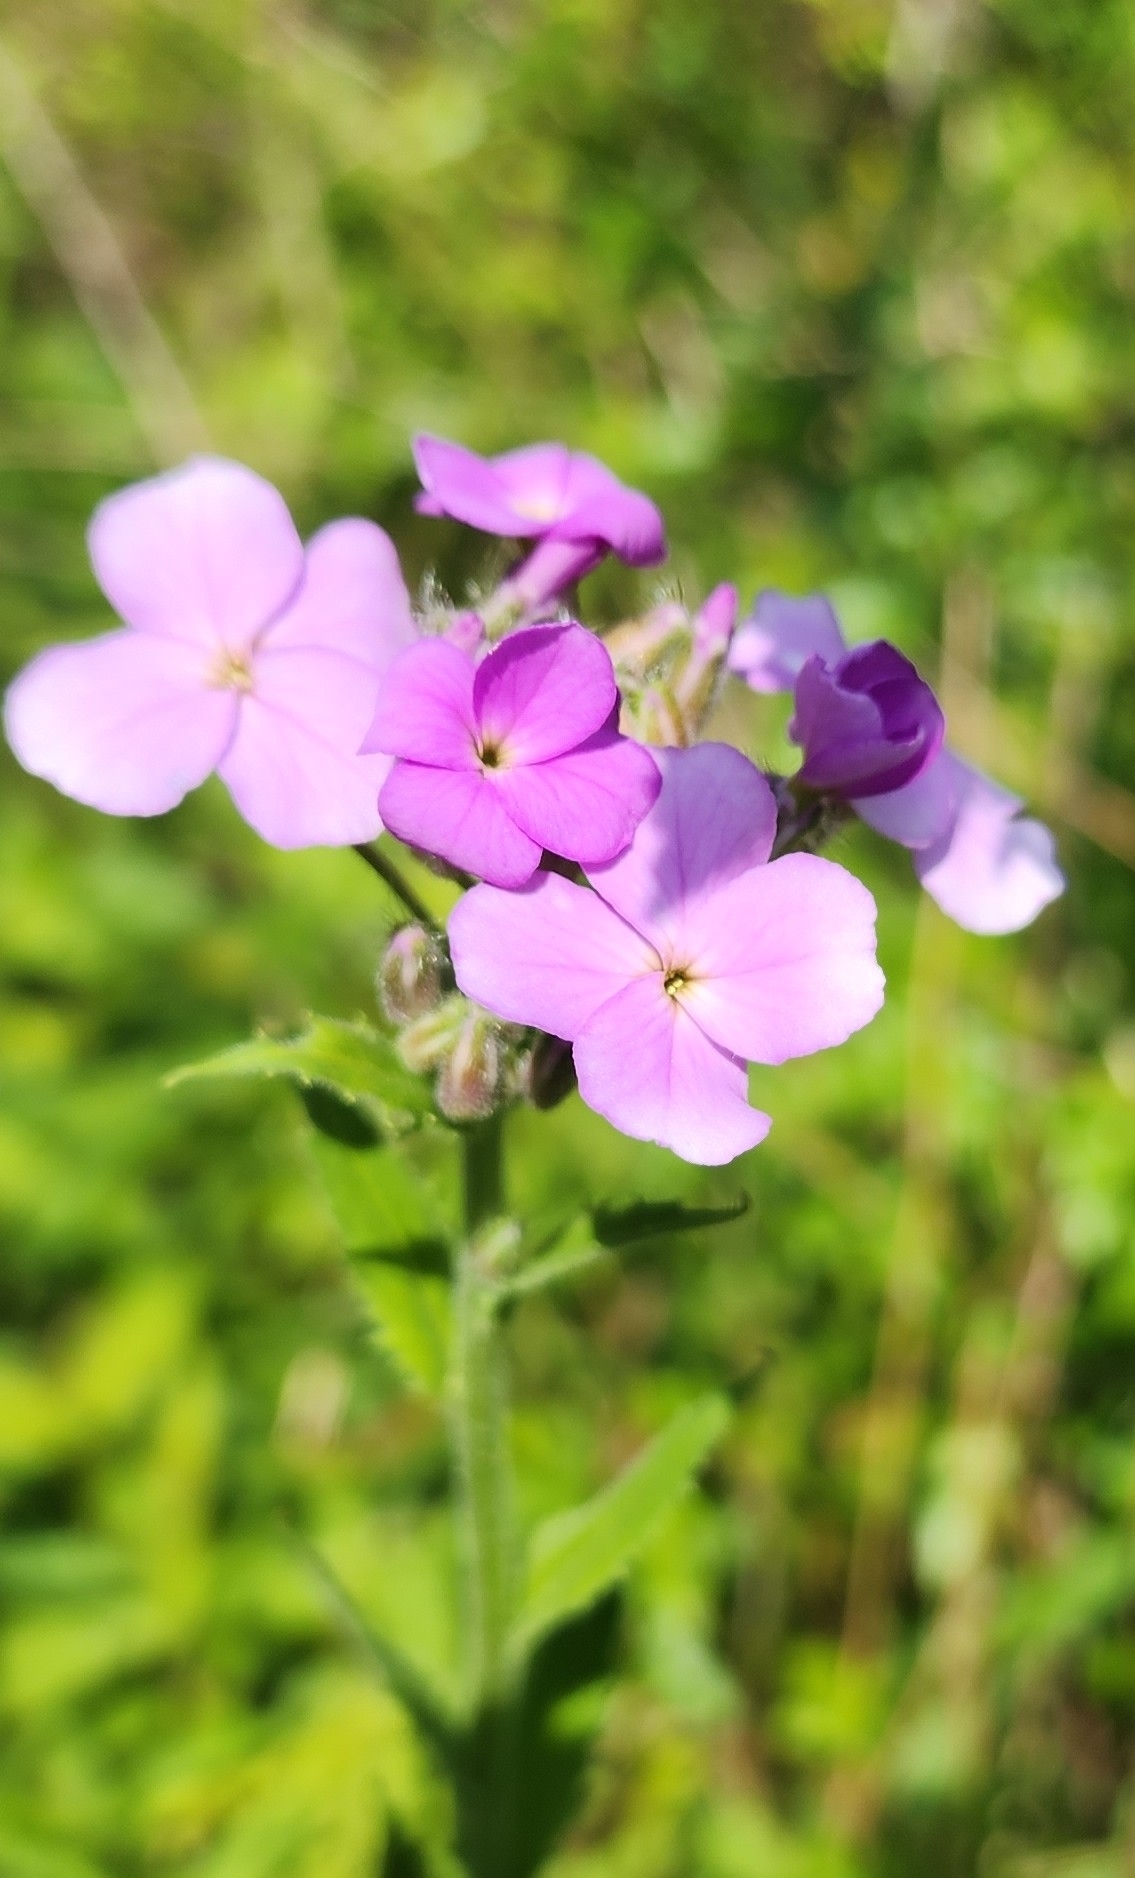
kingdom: Plantae
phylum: Tracheophyta
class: Magnoliopsida
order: Brassicales
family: Brassicaceae
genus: Hesperis
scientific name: Hesperis matronalis
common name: Dame's-violet
